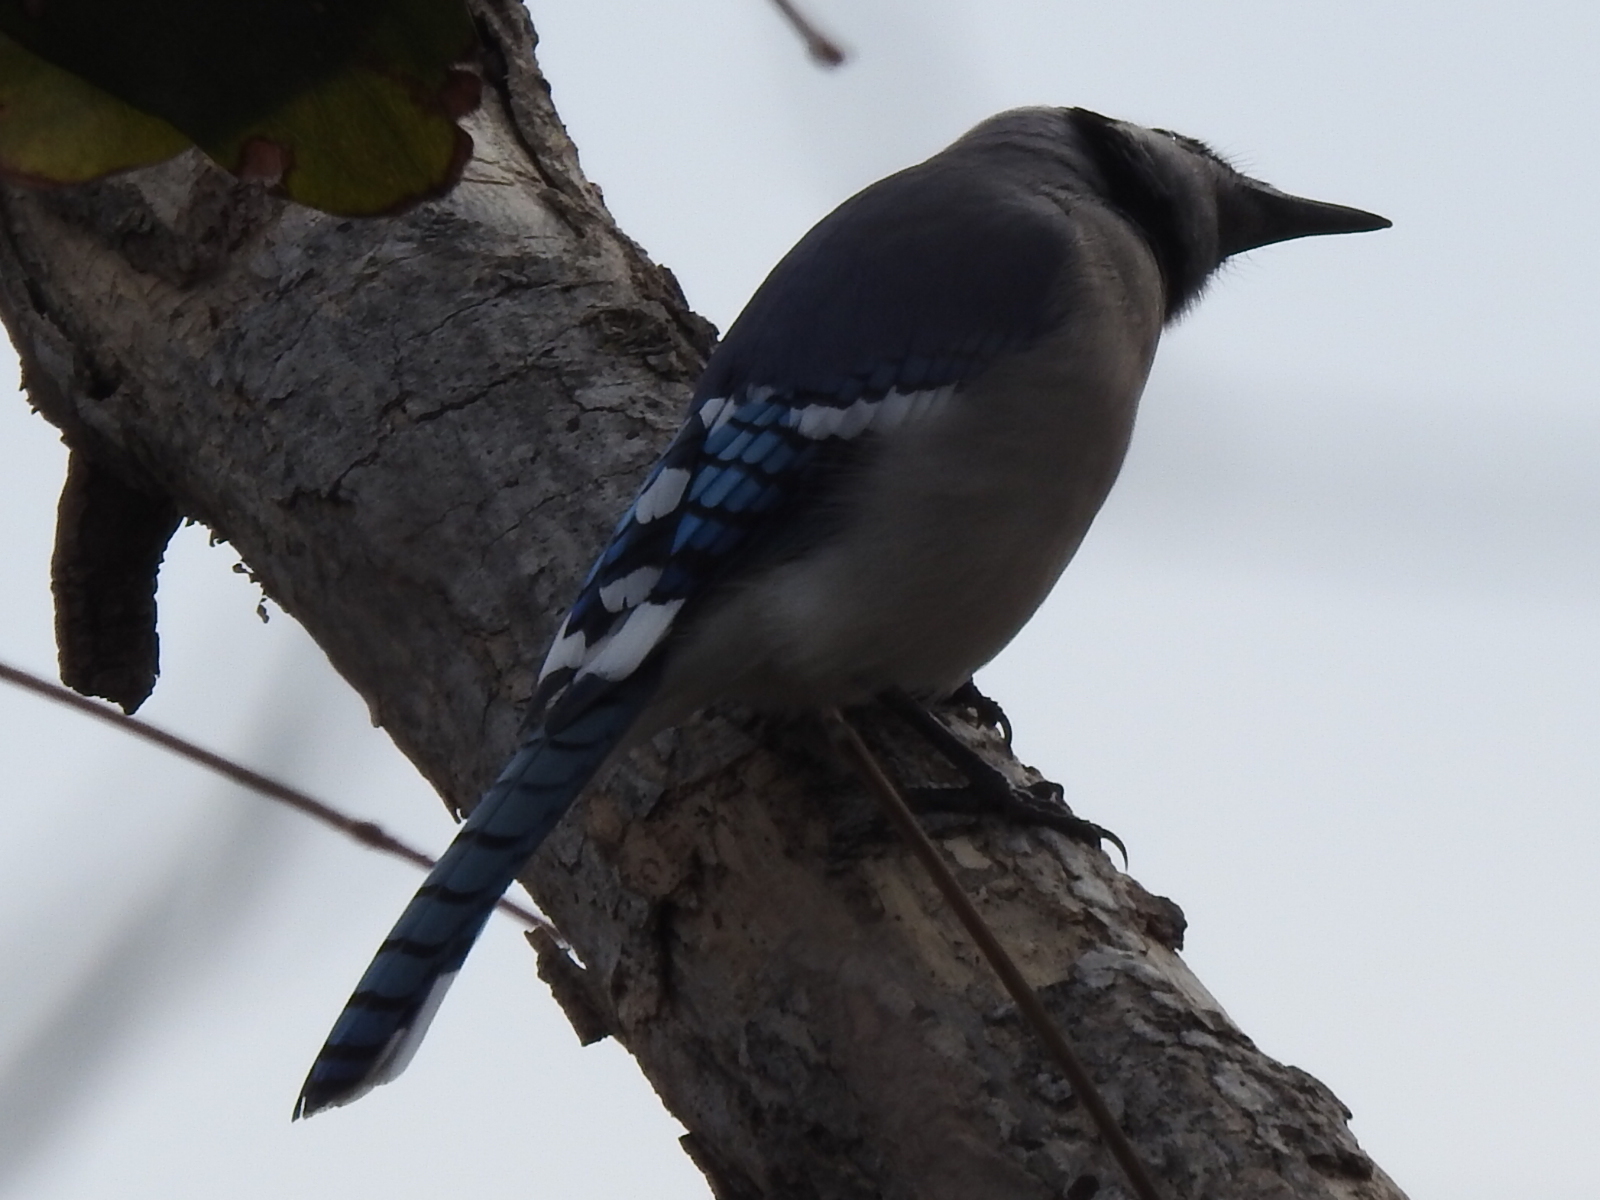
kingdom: Animalia
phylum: Chordata
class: Aves
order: Passeriformes
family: Corvidae
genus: Cyanocitta
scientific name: Cyanocitta cristata
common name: Blue jay
